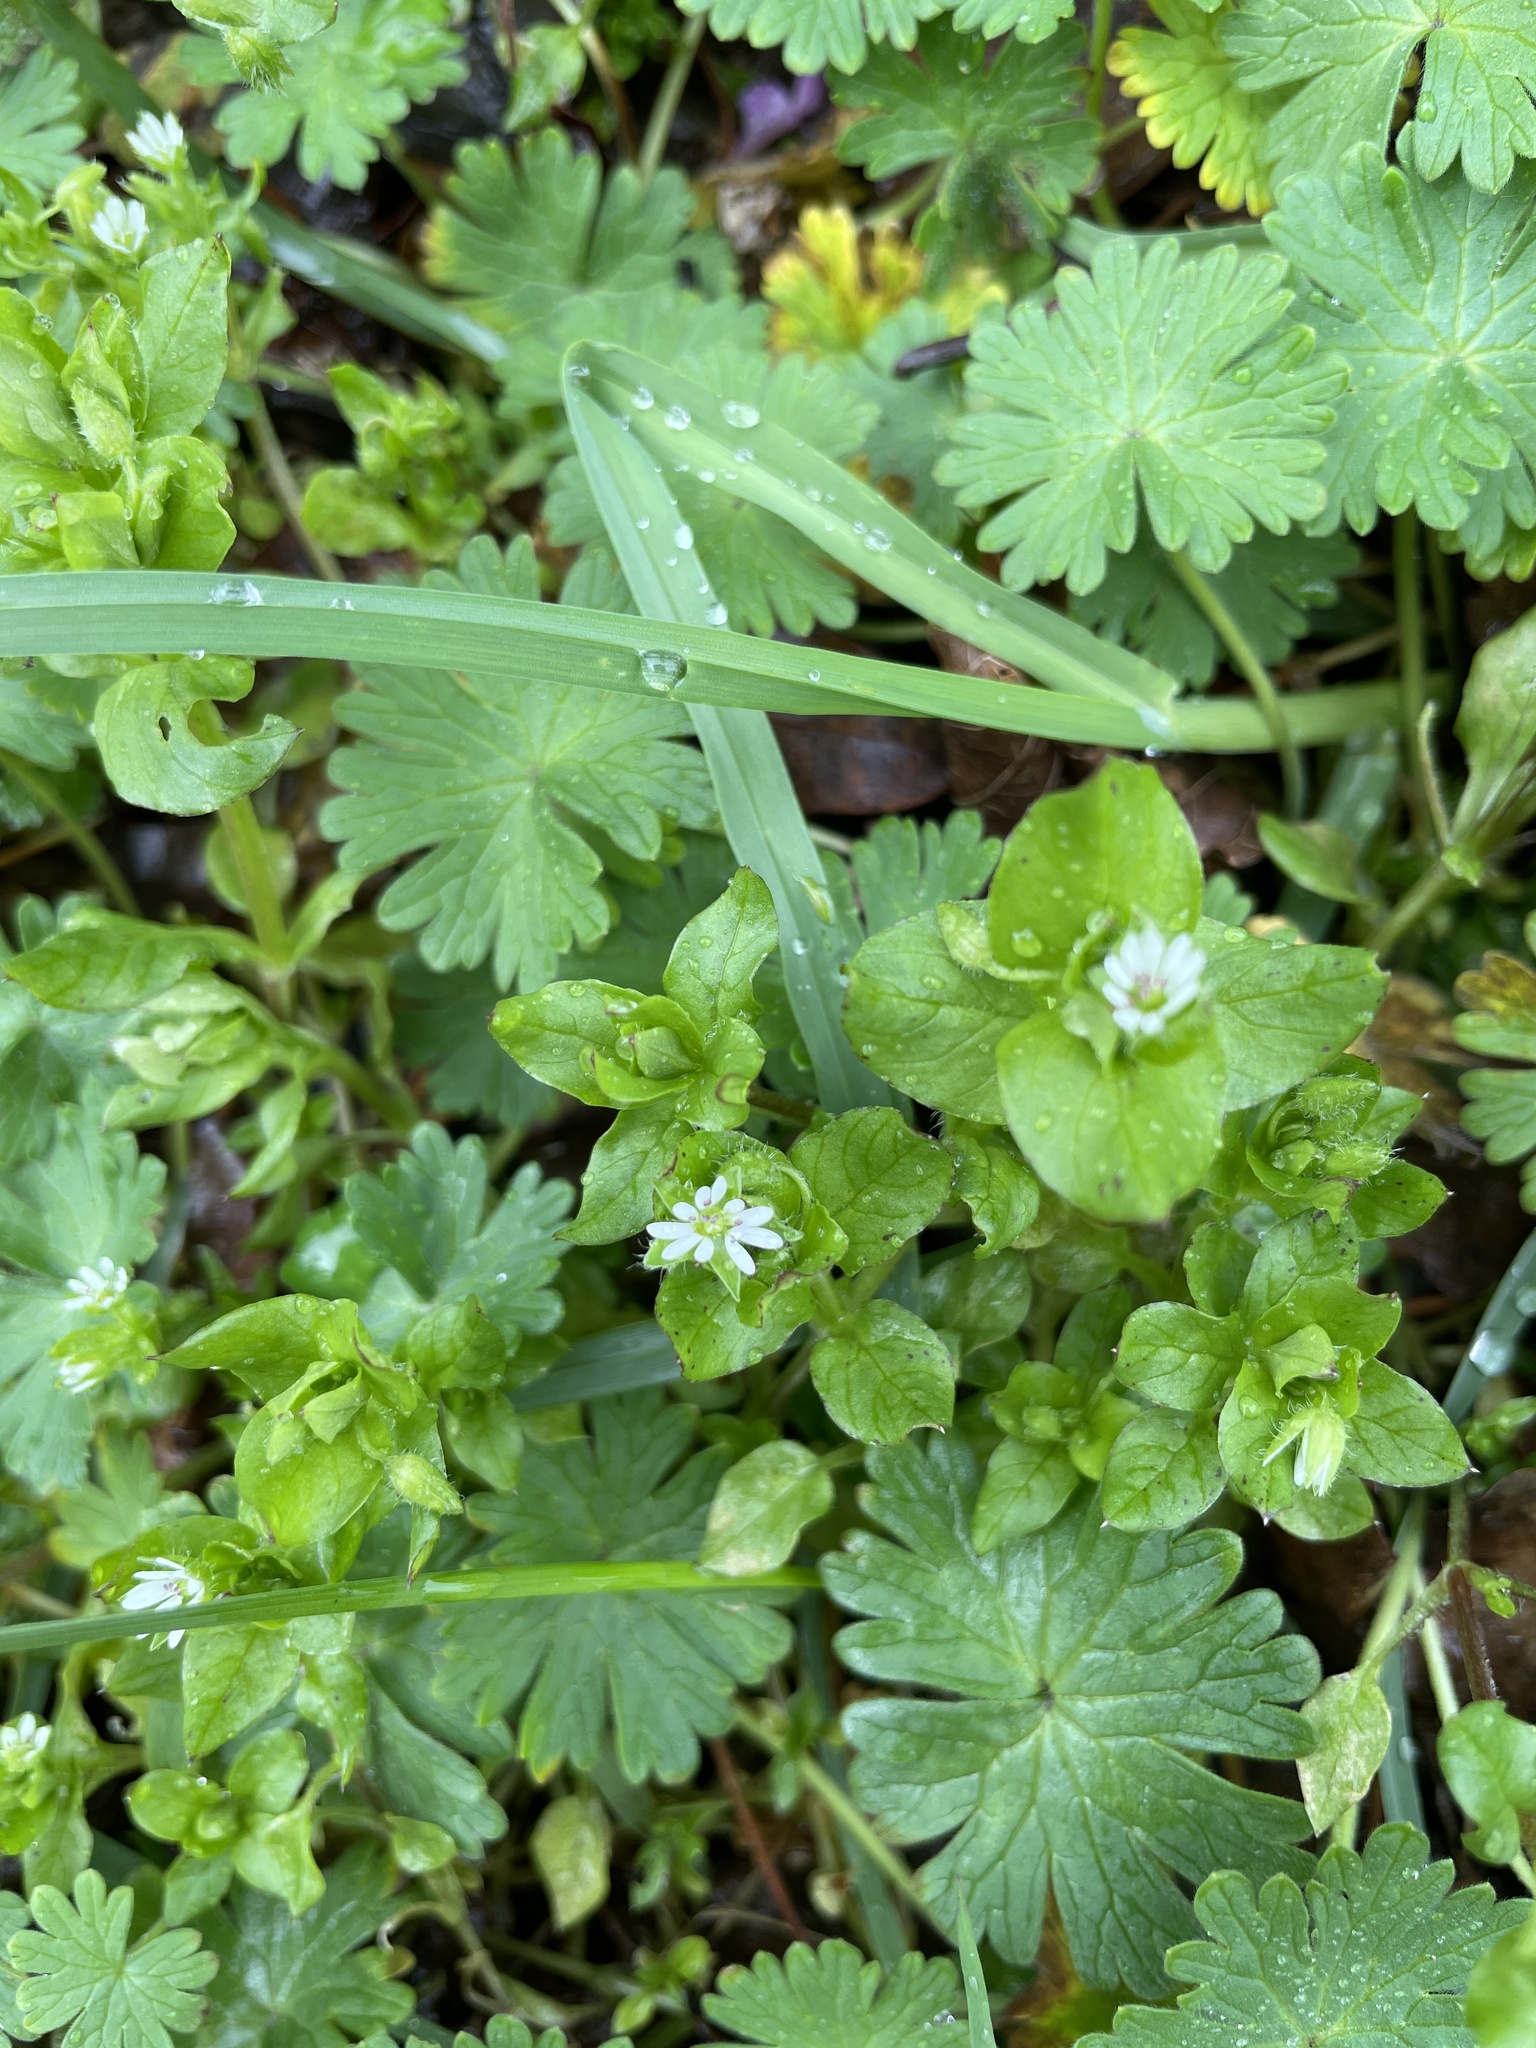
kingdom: Plantae
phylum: Tracheophyta
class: Magnoliopsida
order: Caryophyllales
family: Caryophyllaceae
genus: Stellaria
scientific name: Stellaria media
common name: Common chickweed
